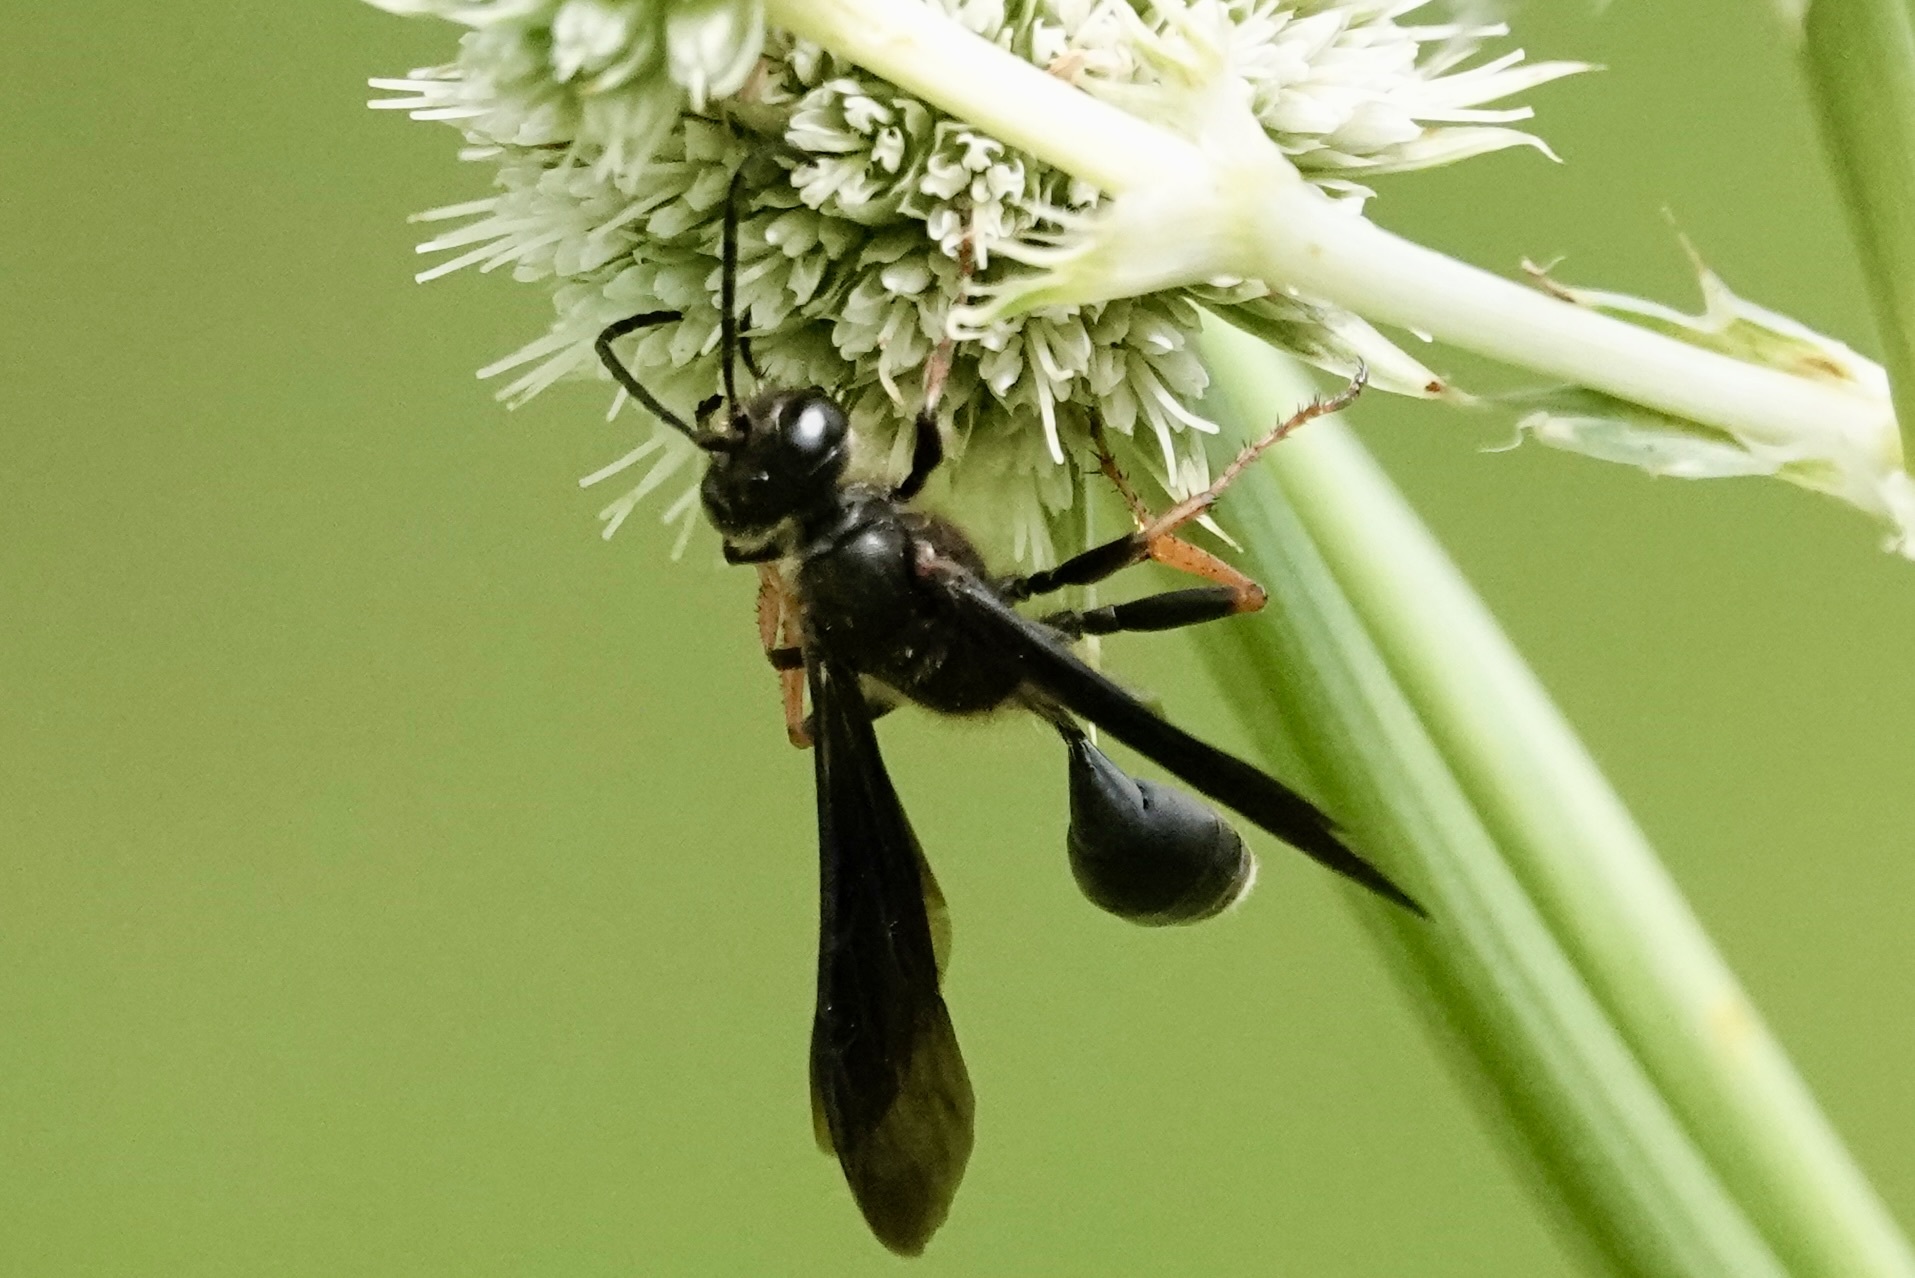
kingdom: Animalia
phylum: Arthropoda
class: Insecta
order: Hymenoptera
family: Sphecidae
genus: Isodontia
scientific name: Isodontia auripes
